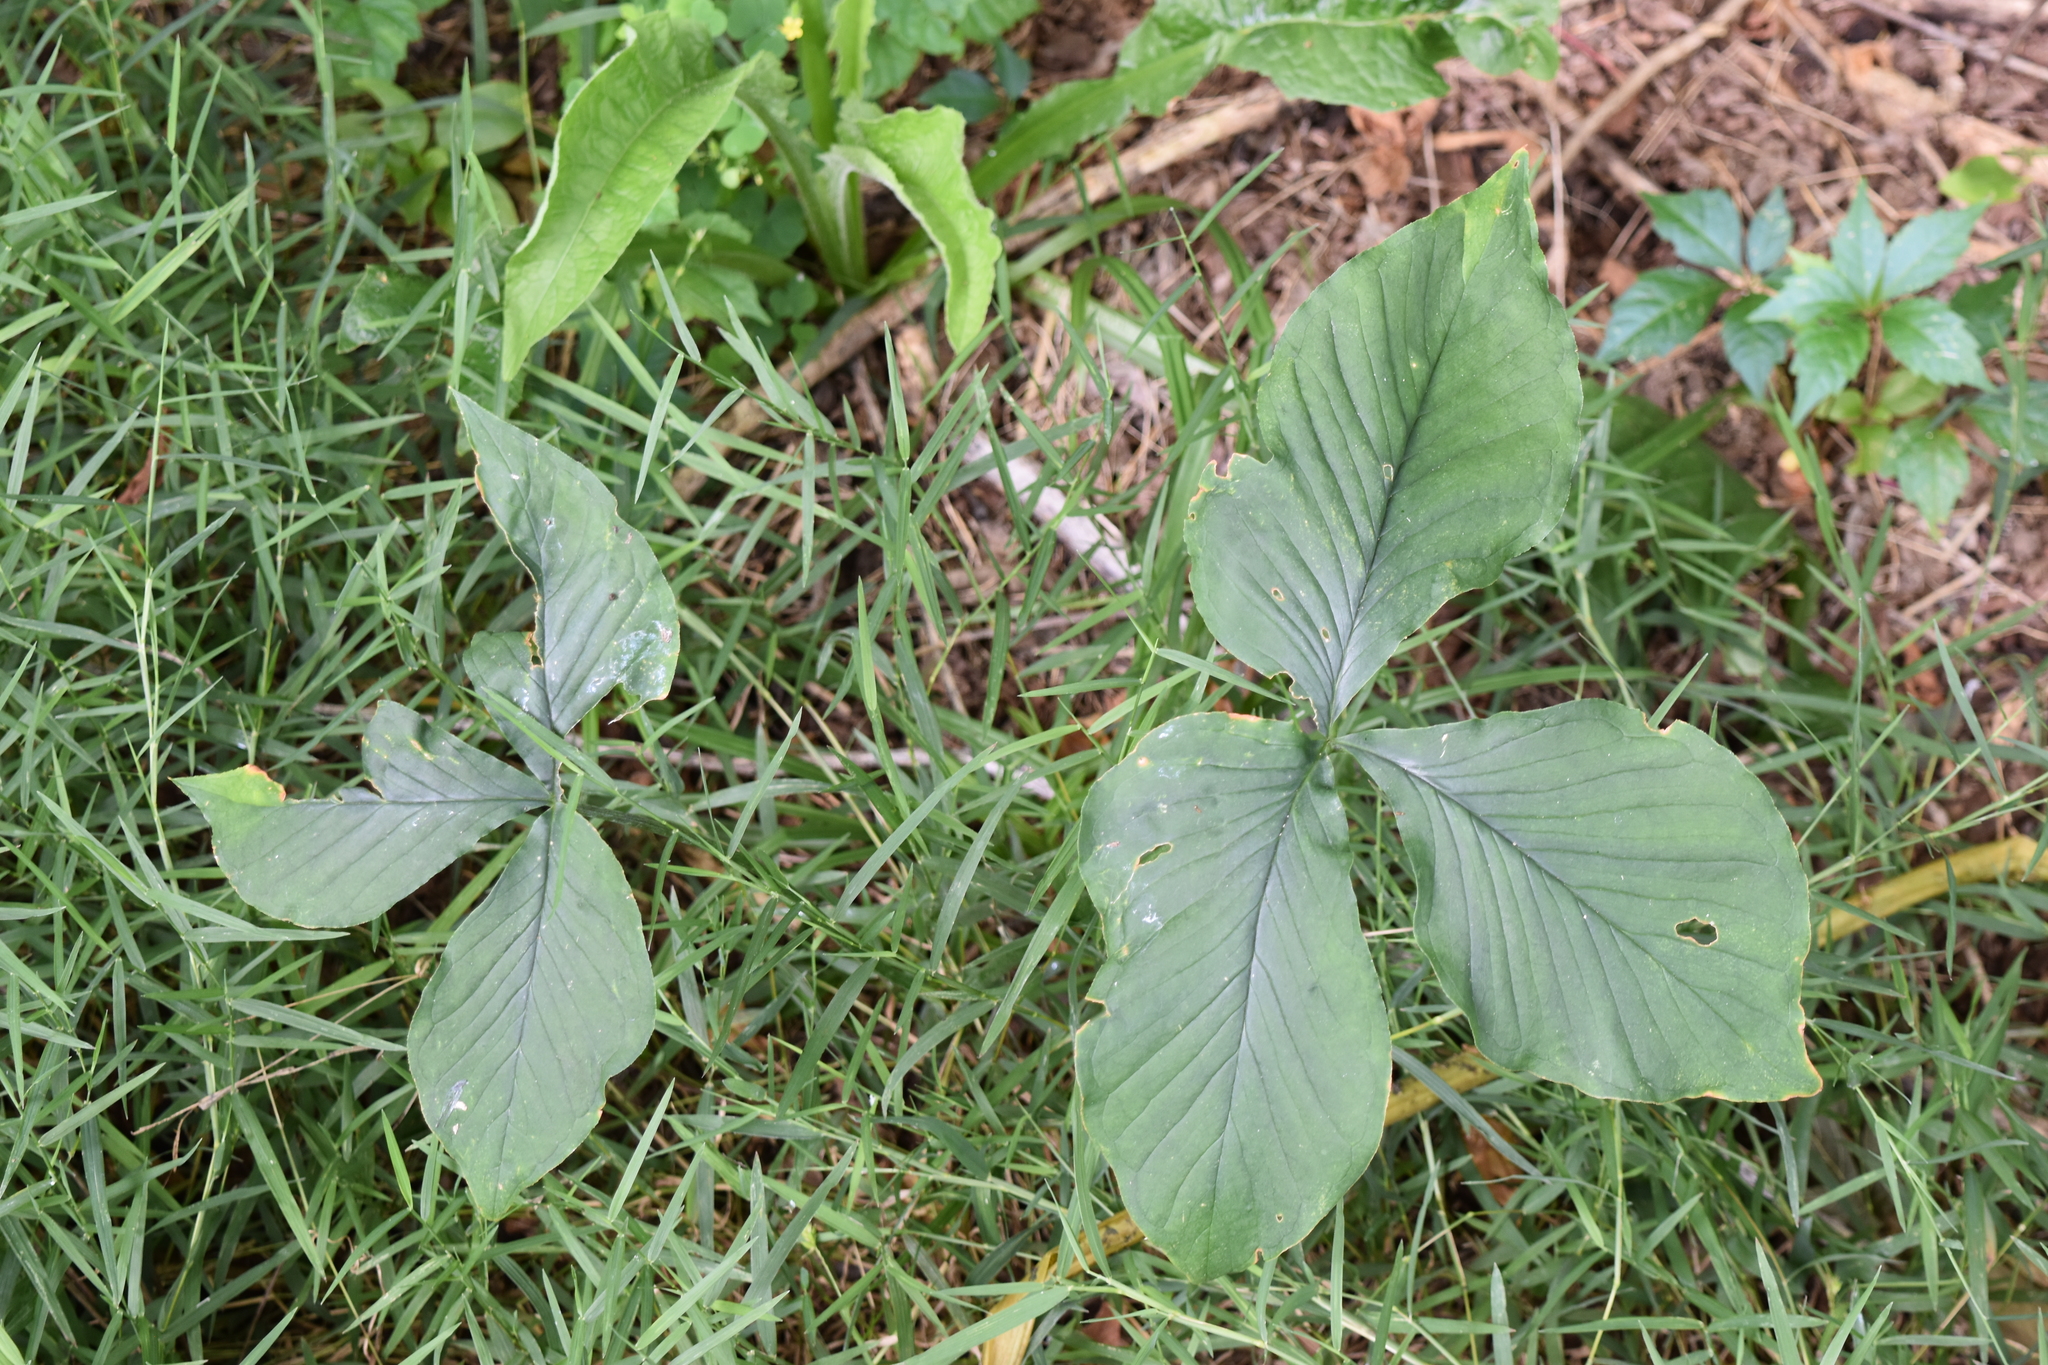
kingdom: Plantae
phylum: Tracheophyta
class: Liliopsida
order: Alismatales
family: Araceae
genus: Arisaema
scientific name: Arisaema triphyllum
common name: Jack-in-the-pulpit
